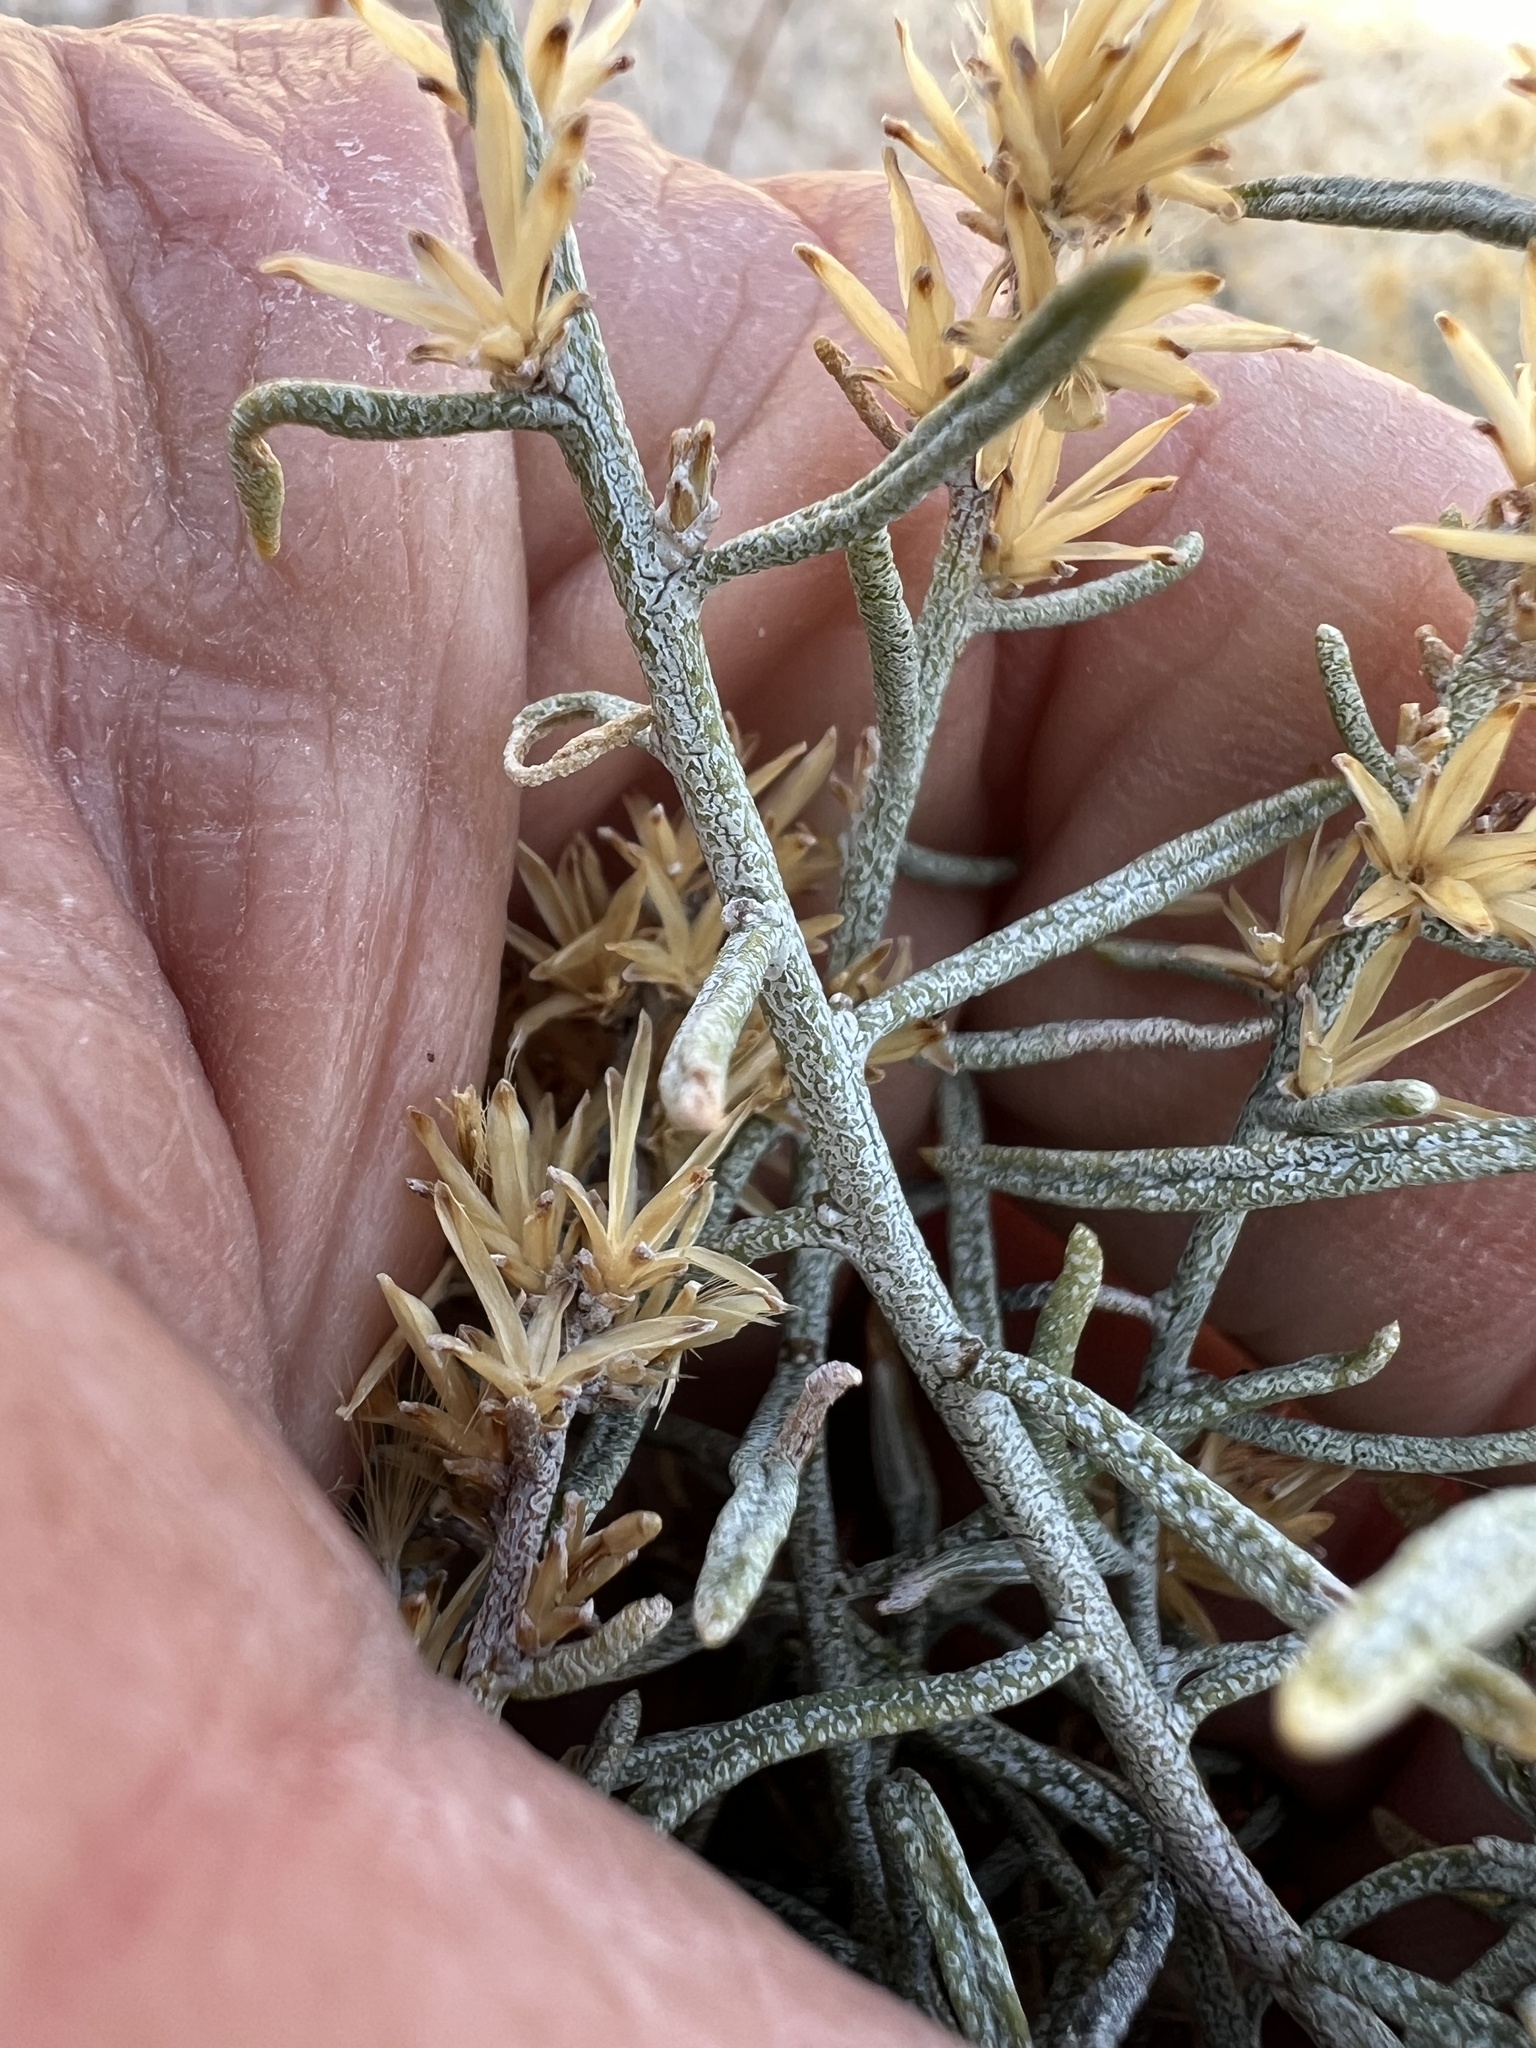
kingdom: Plantae
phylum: Tracheophyta
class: Magnoliopsida
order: Asterales
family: Asteraceae
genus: Ericameria
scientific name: Ericameria teretifolia
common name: Round-leaf rabbitbrush
